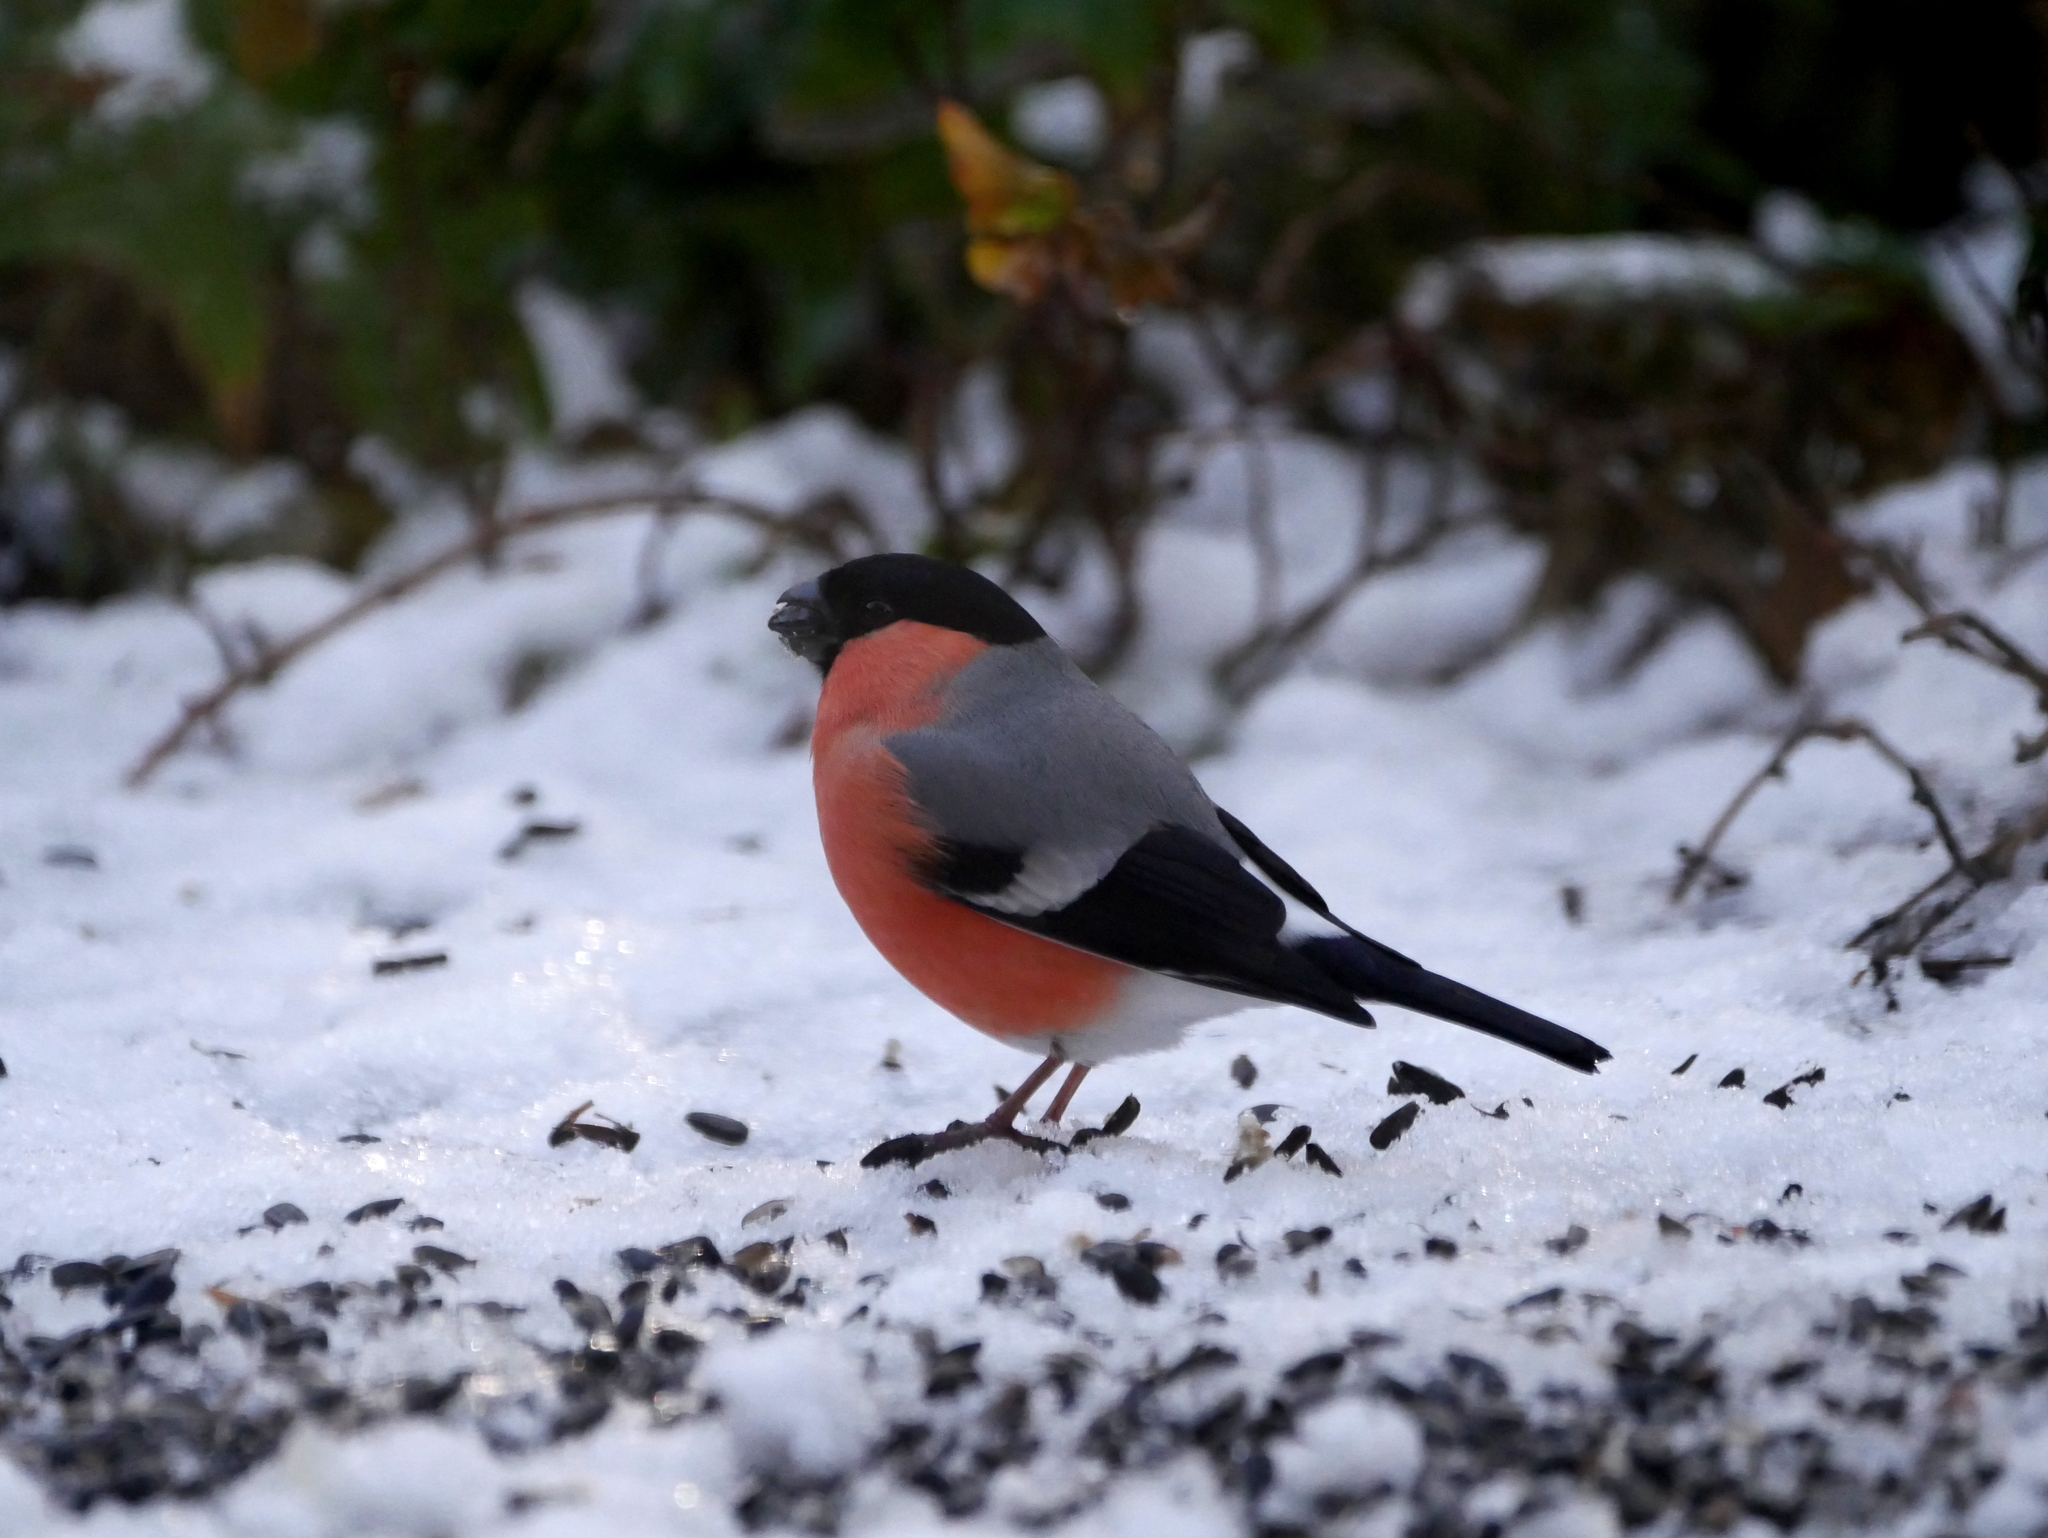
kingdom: Animalia
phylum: Chordata
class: Aves
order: Passeriformes
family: Fringillidae
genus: Pyrrhula
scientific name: Pyrrhula pyrrhula
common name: Eurasian bullfinch
